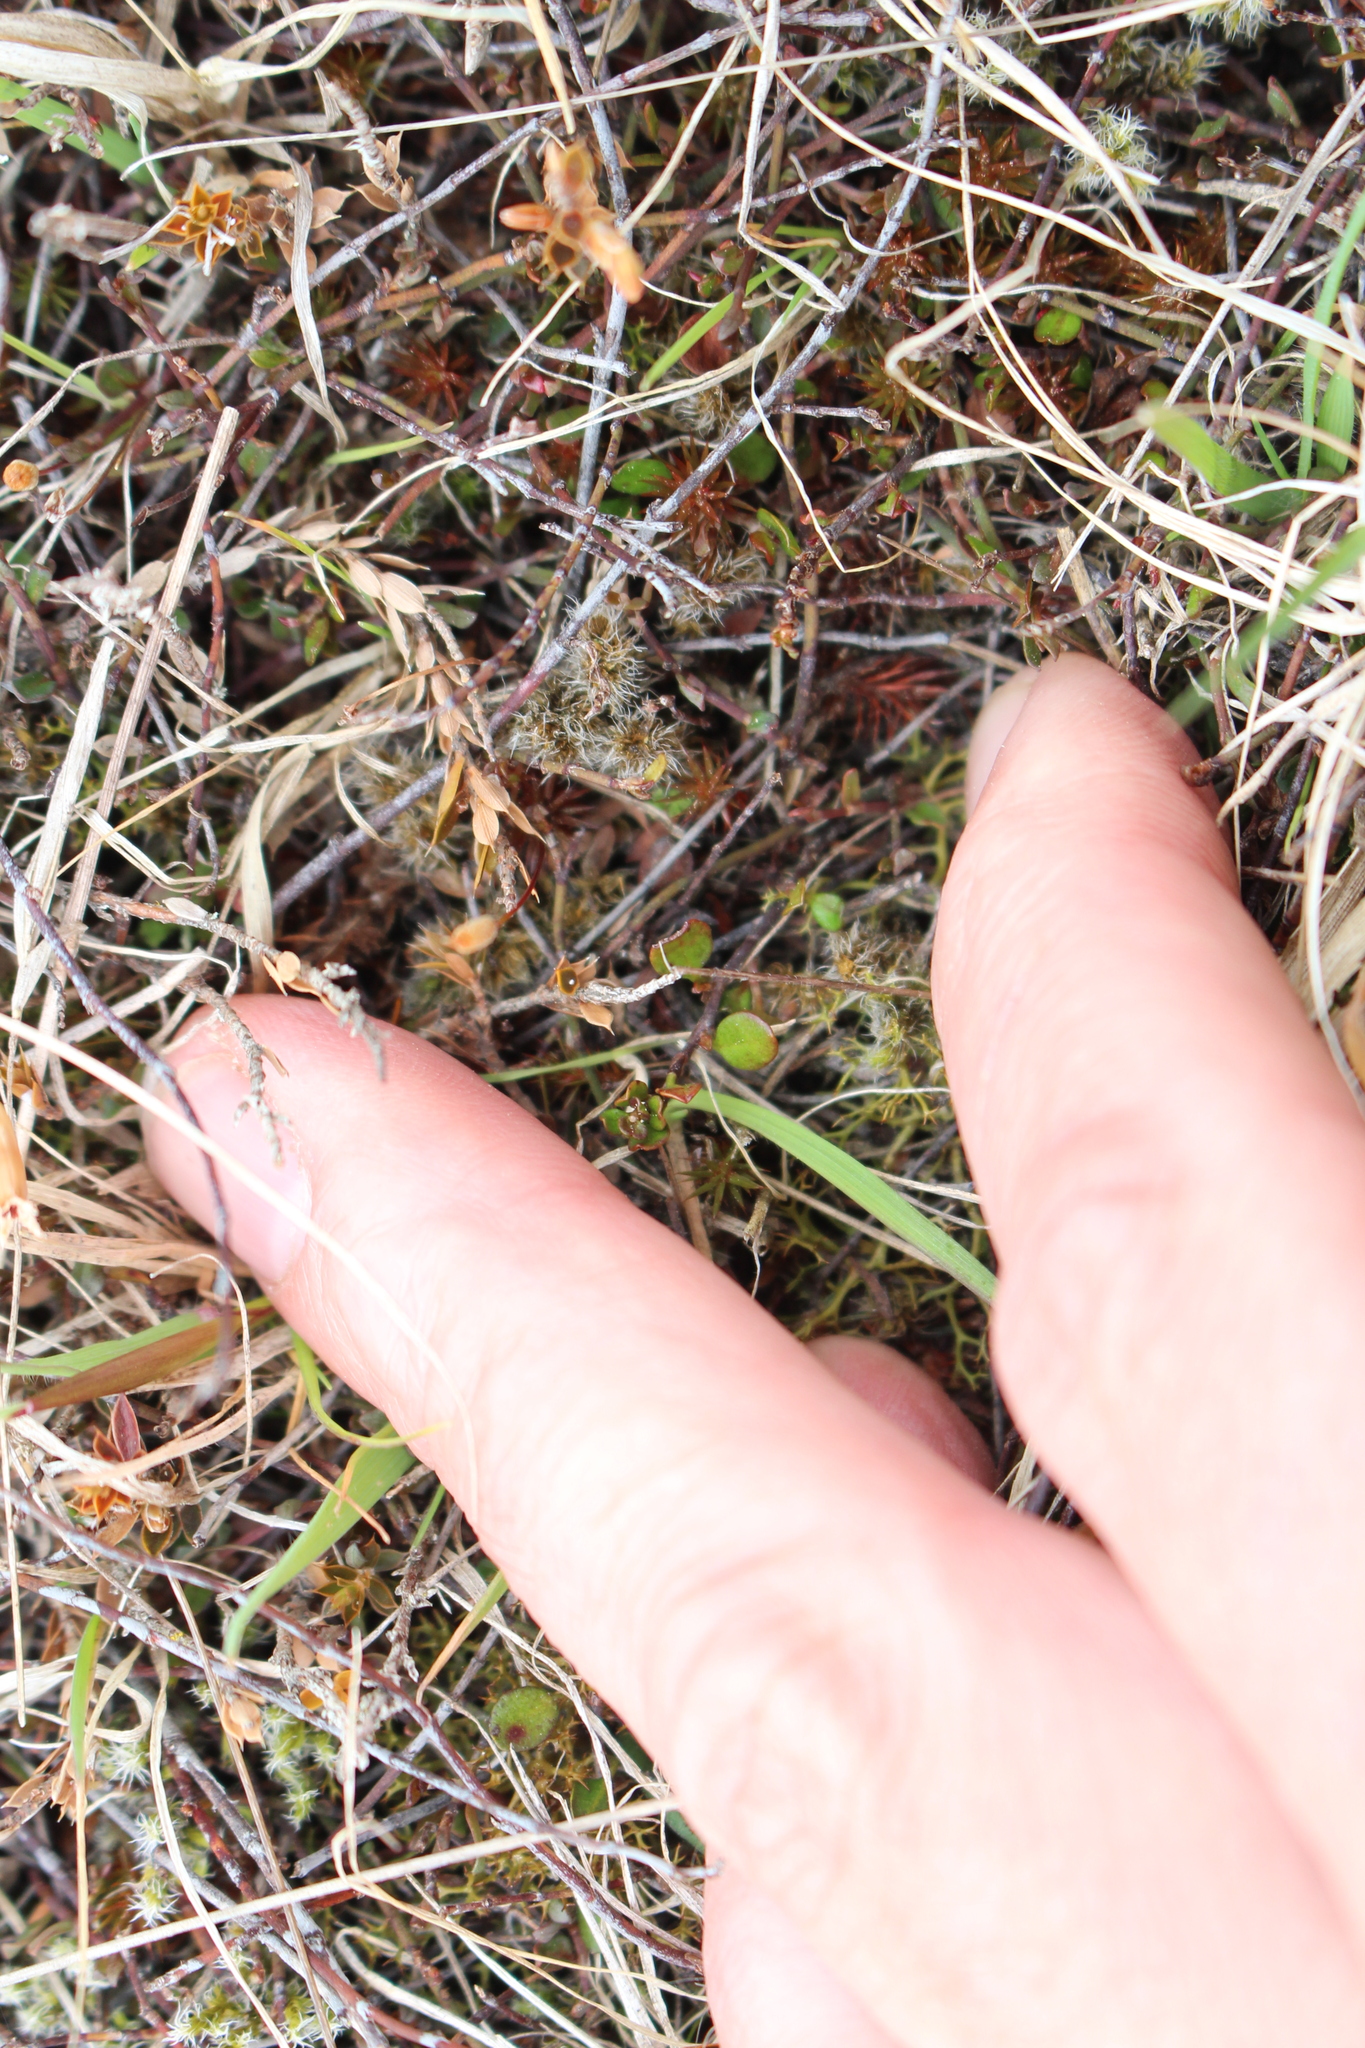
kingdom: Plantae
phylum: Tracheophyta
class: Magnoliopsida
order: Caryophyllales
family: Polygonaceae
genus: Muehlenbeckia
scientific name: Muehlenbeckia axillaris
